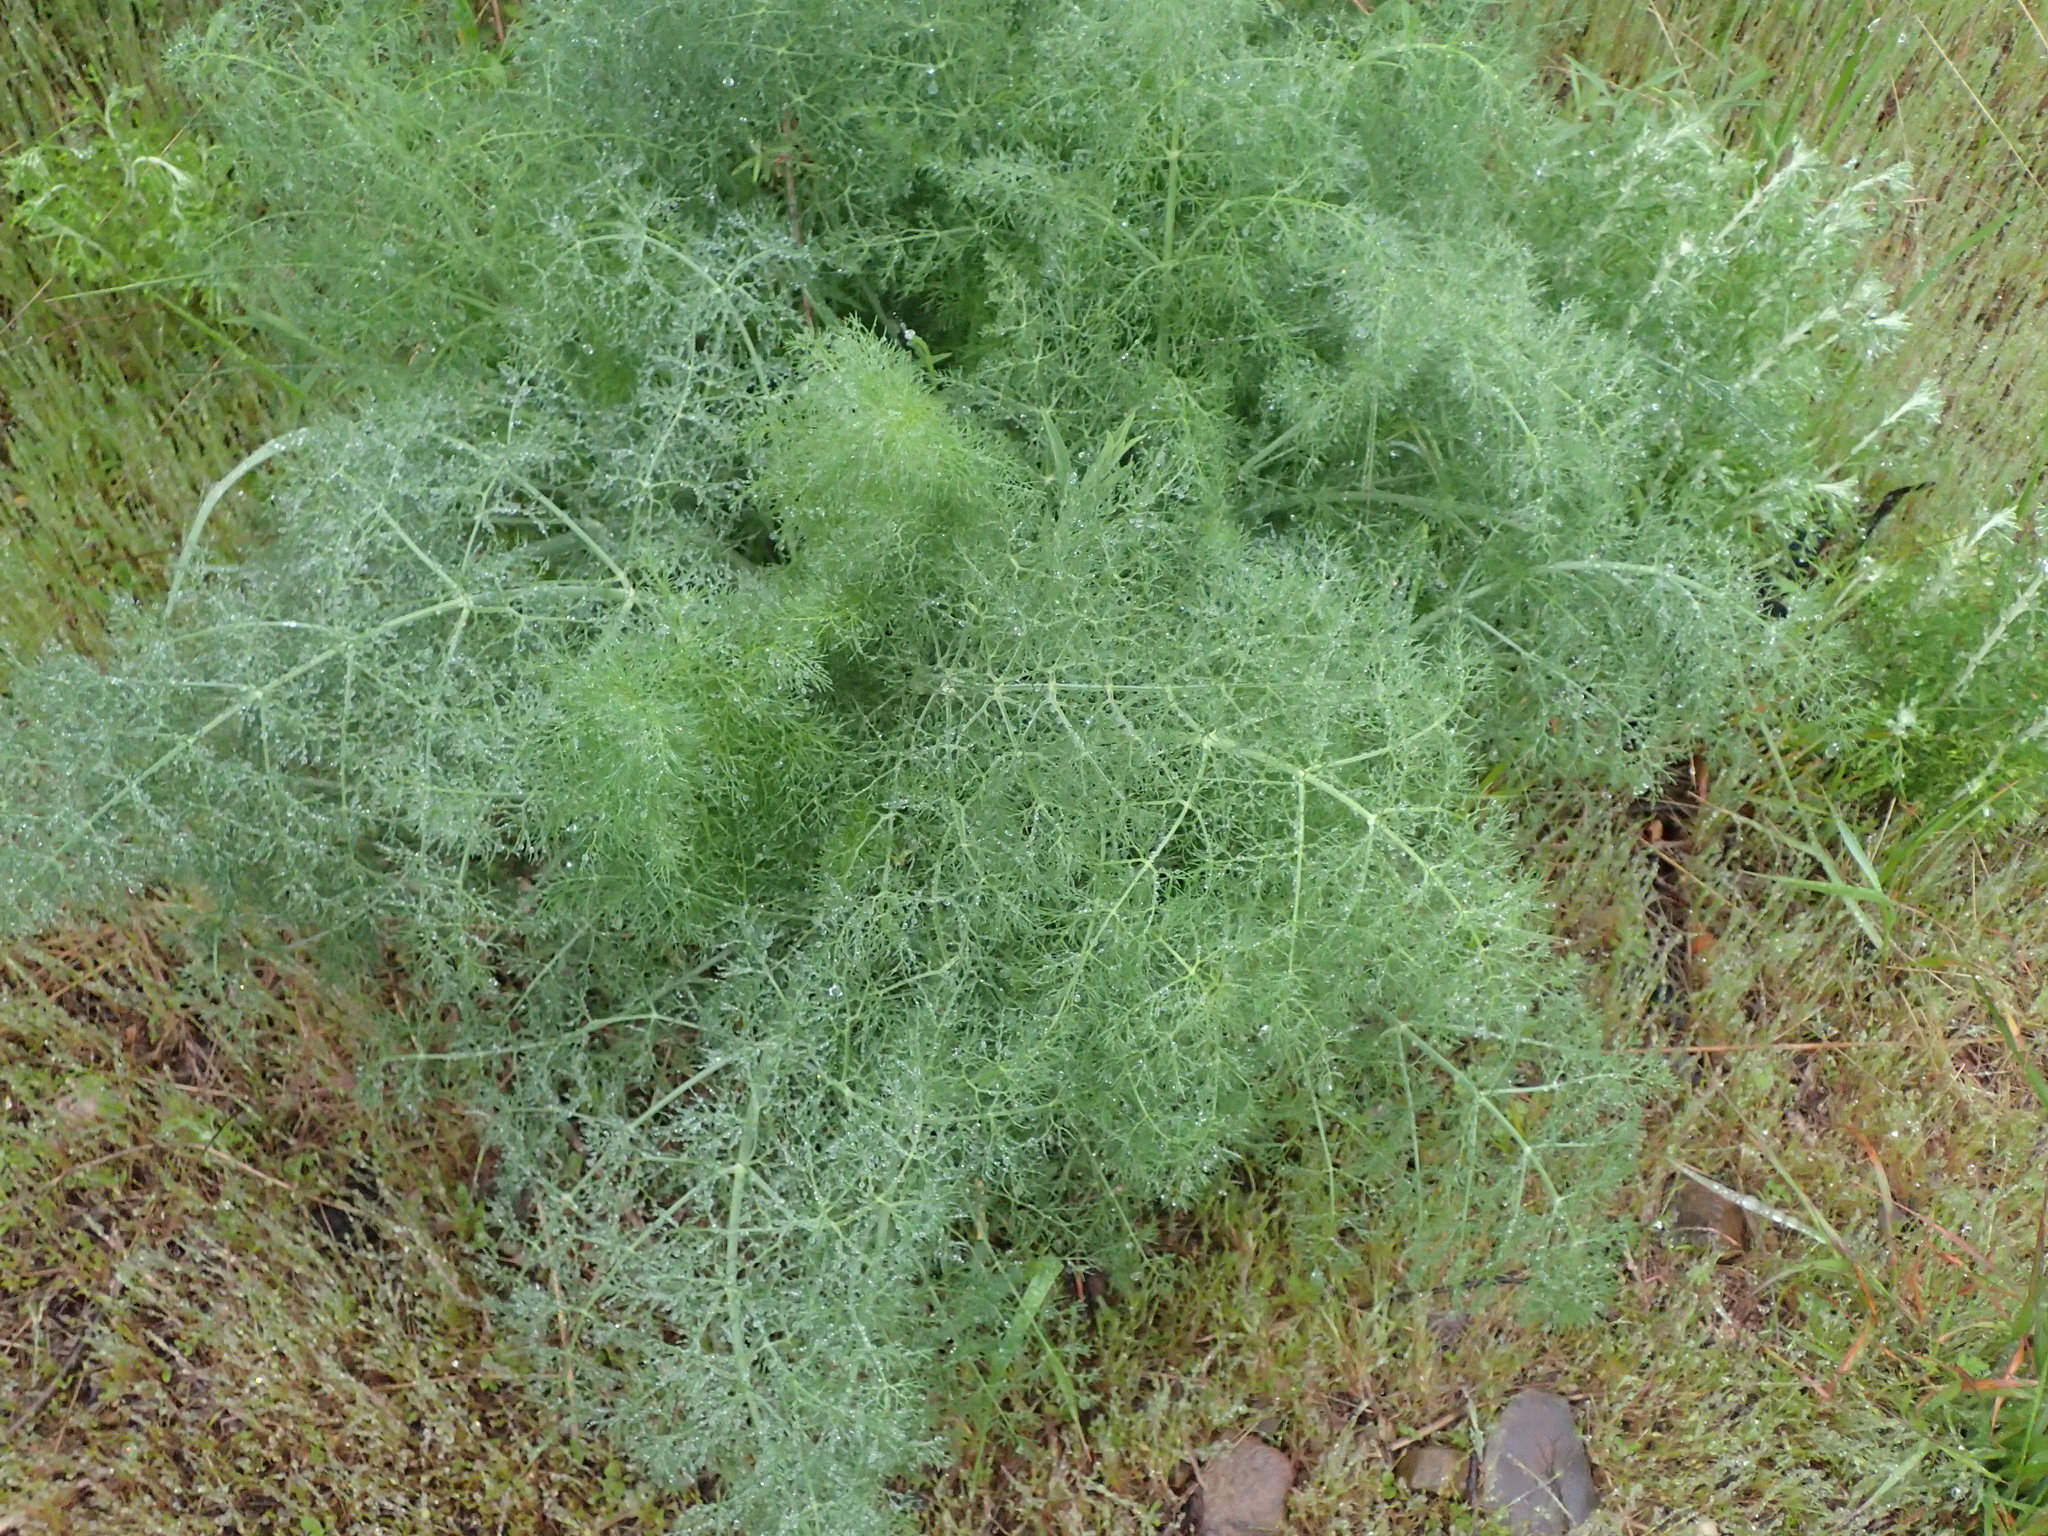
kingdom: Plantae
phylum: Tracheophyta
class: Magnoliopsida
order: Apiales
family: Apiaceae
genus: Foeniculum
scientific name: Foeniculum vulgare
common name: Fennel
